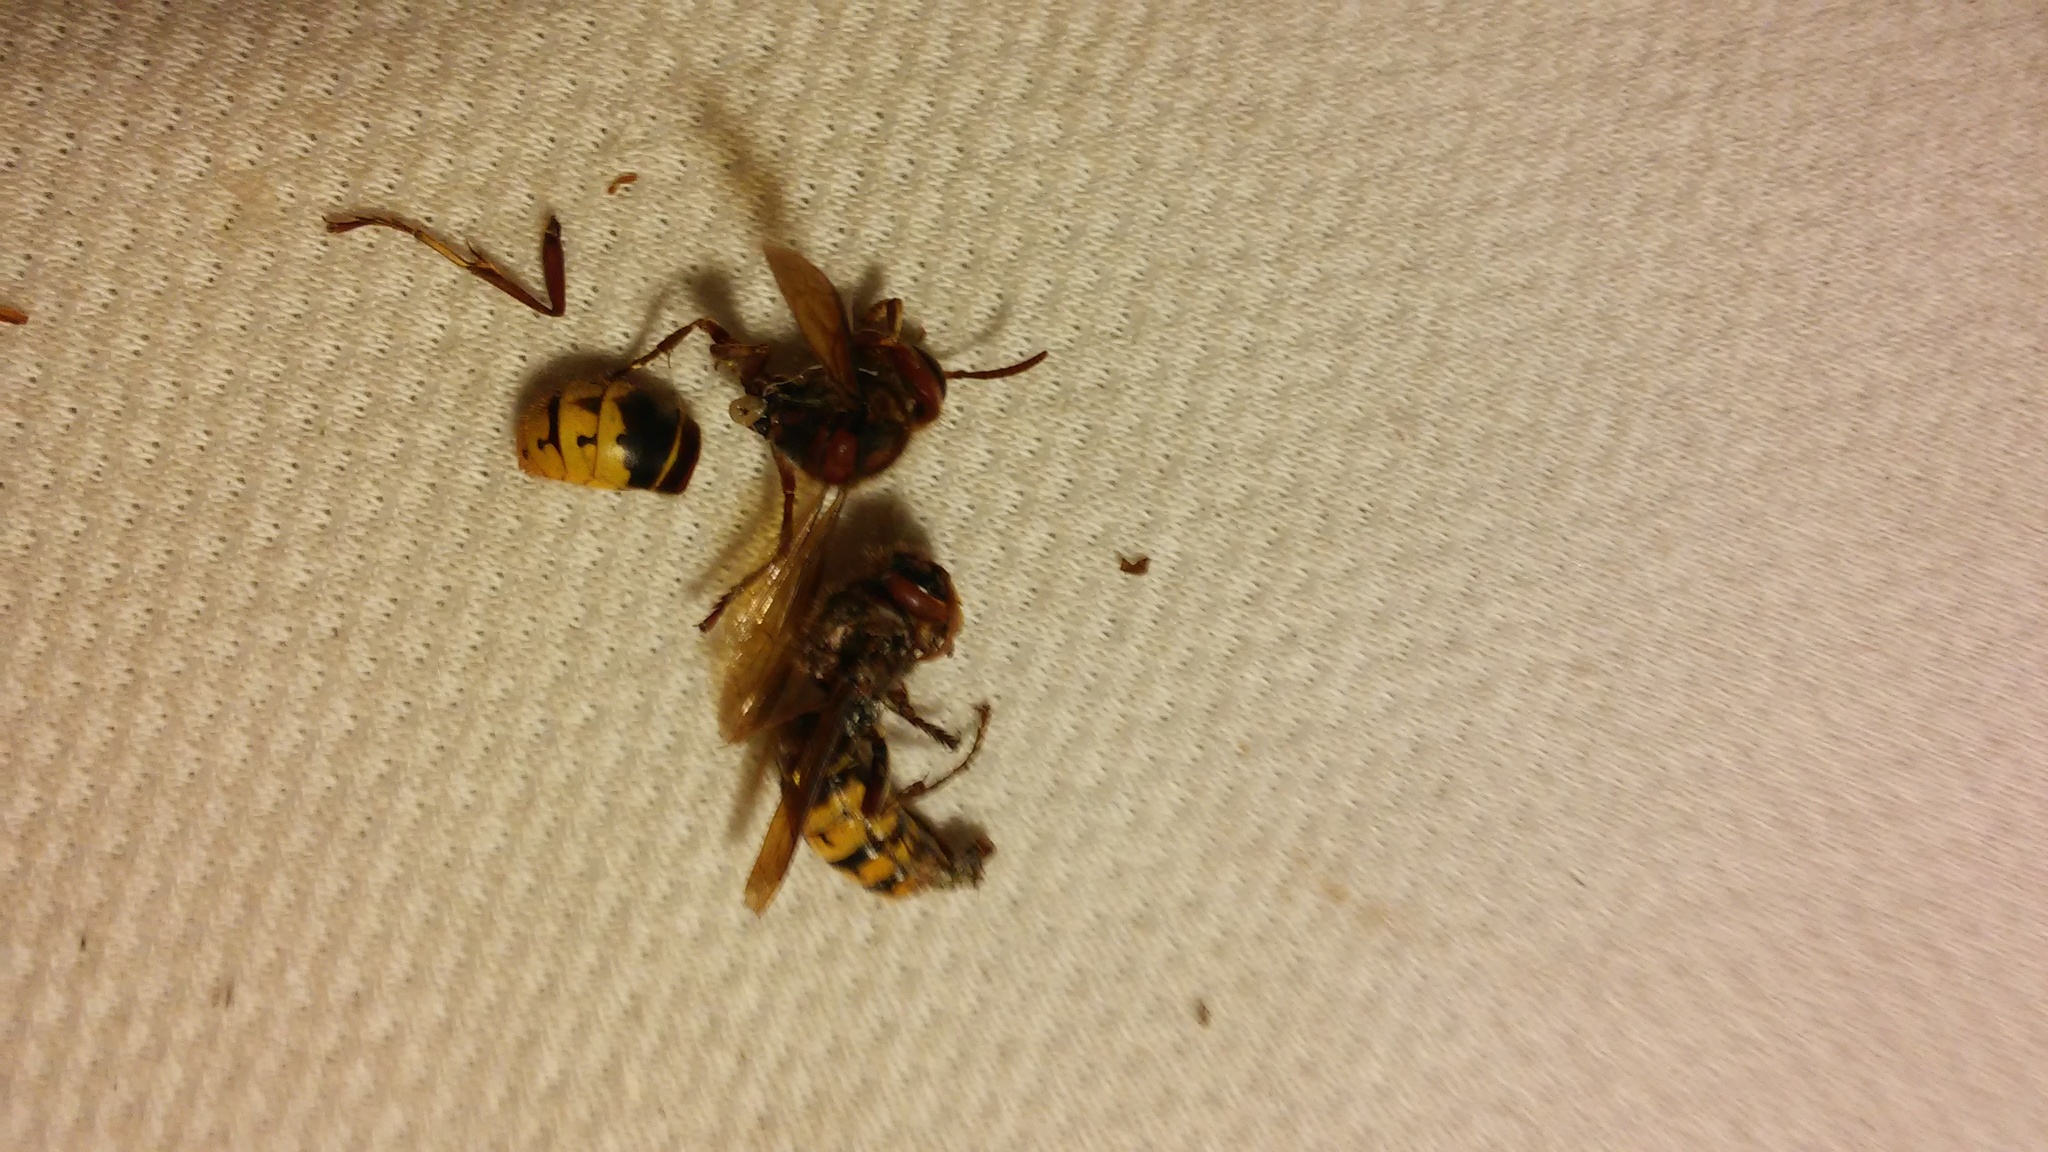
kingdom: Animalia
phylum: Arthropoda
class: Insecta
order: Hymenoptera
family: Vespidae
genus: Vespa
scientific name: Vespa crabro
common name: Hornet
